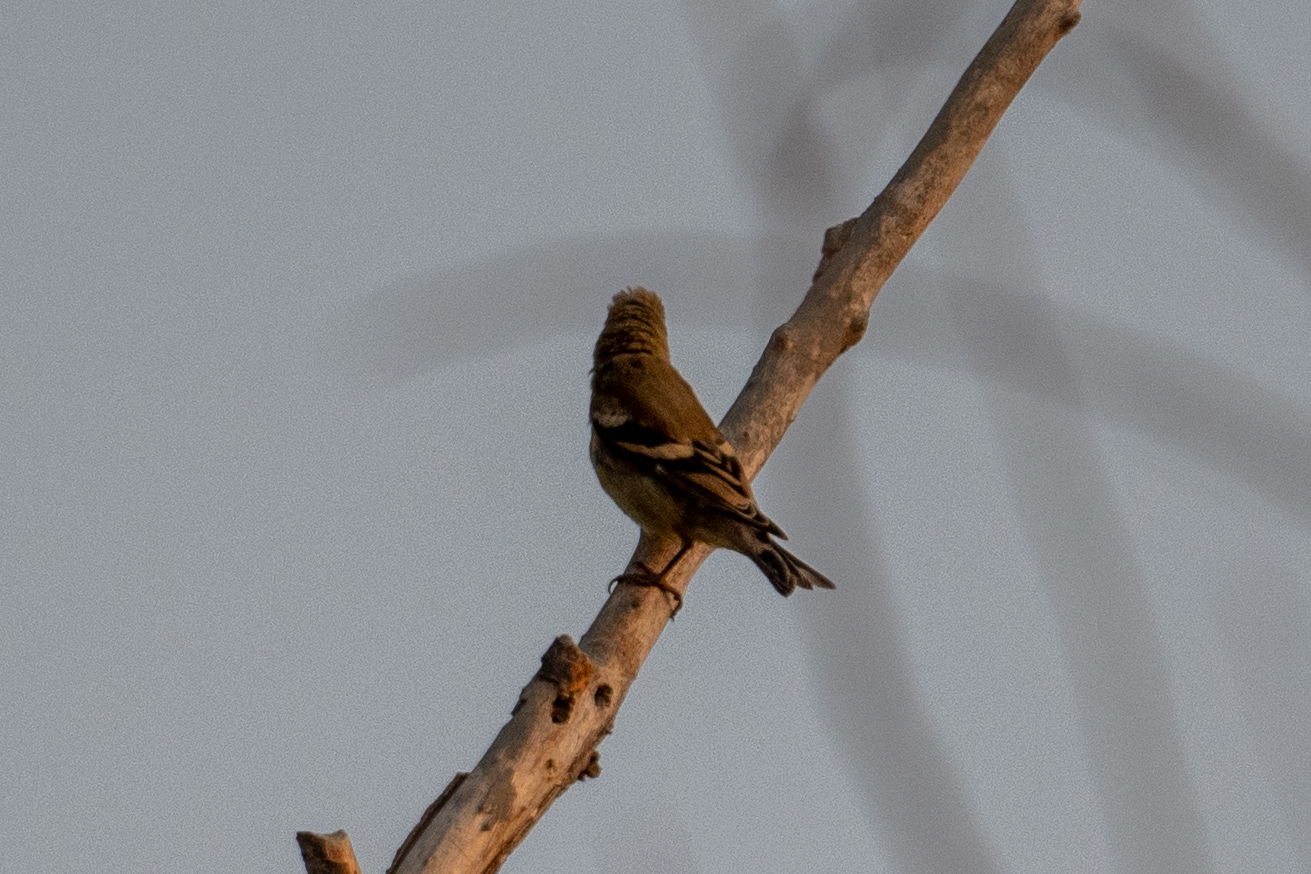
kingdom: Animalia
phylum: Chordata
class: Aves
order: Passeriformes
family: Fringillidae
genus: Spinus
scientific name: Spinus tristis
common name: American goldfinch
